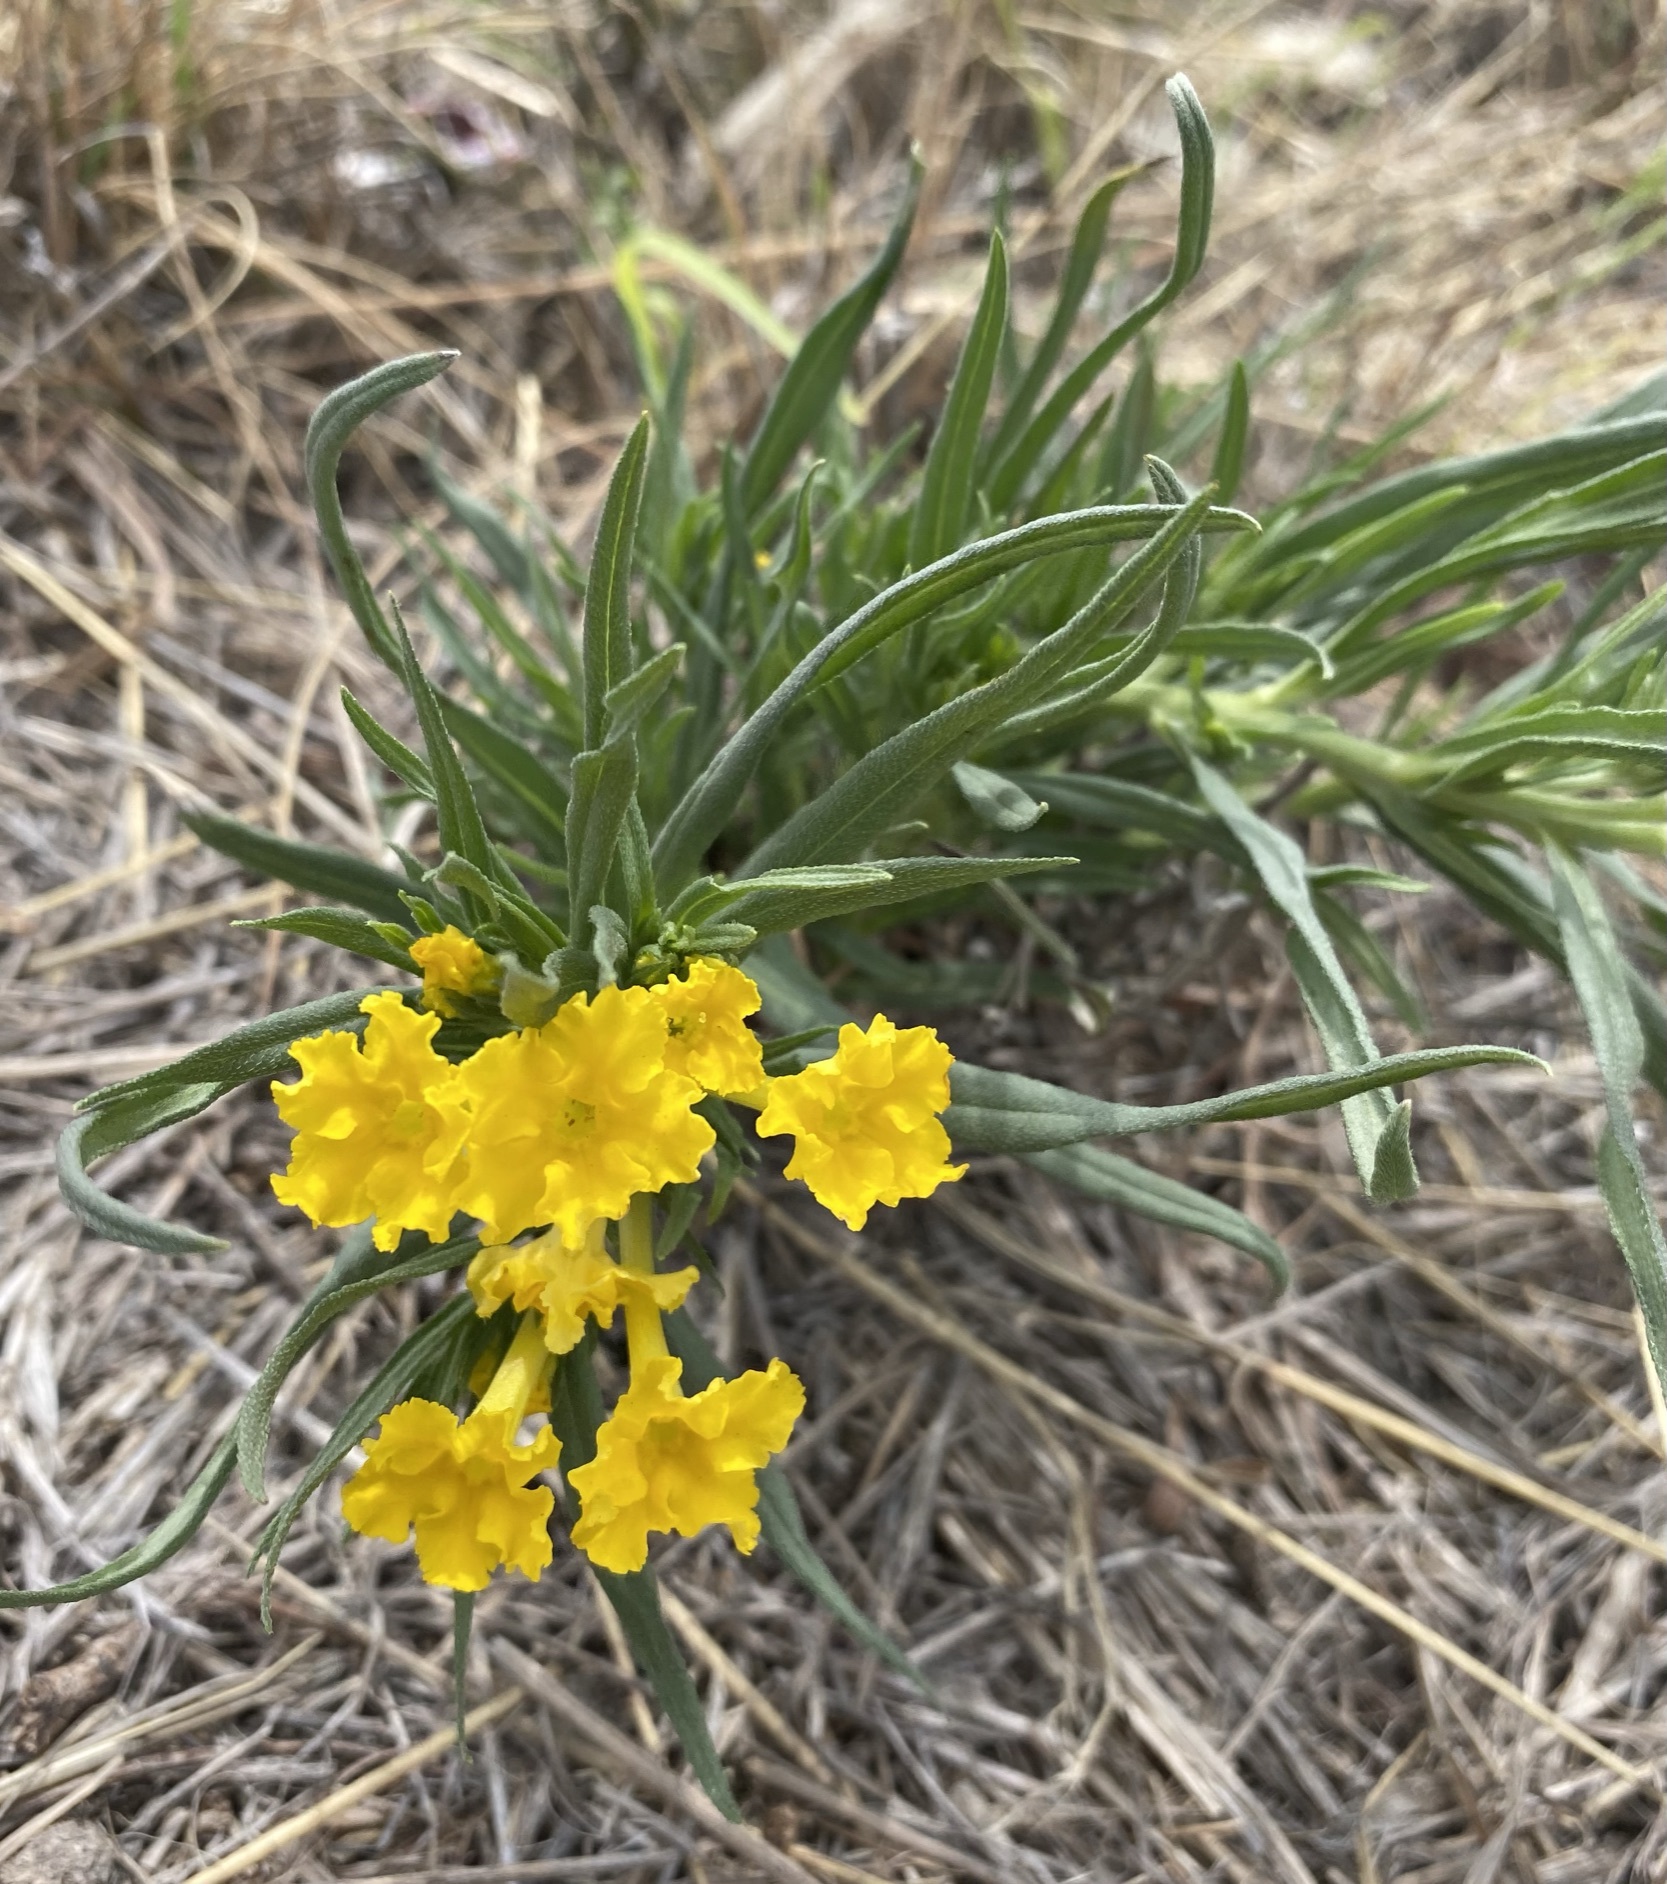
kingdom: Plantae
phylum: Tracheophyta
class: Magnoliopsida
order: Boraginales
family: Boraginaceae
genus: Lithospermum
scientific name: Lithospermum incisum
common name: Fringed gromwell
